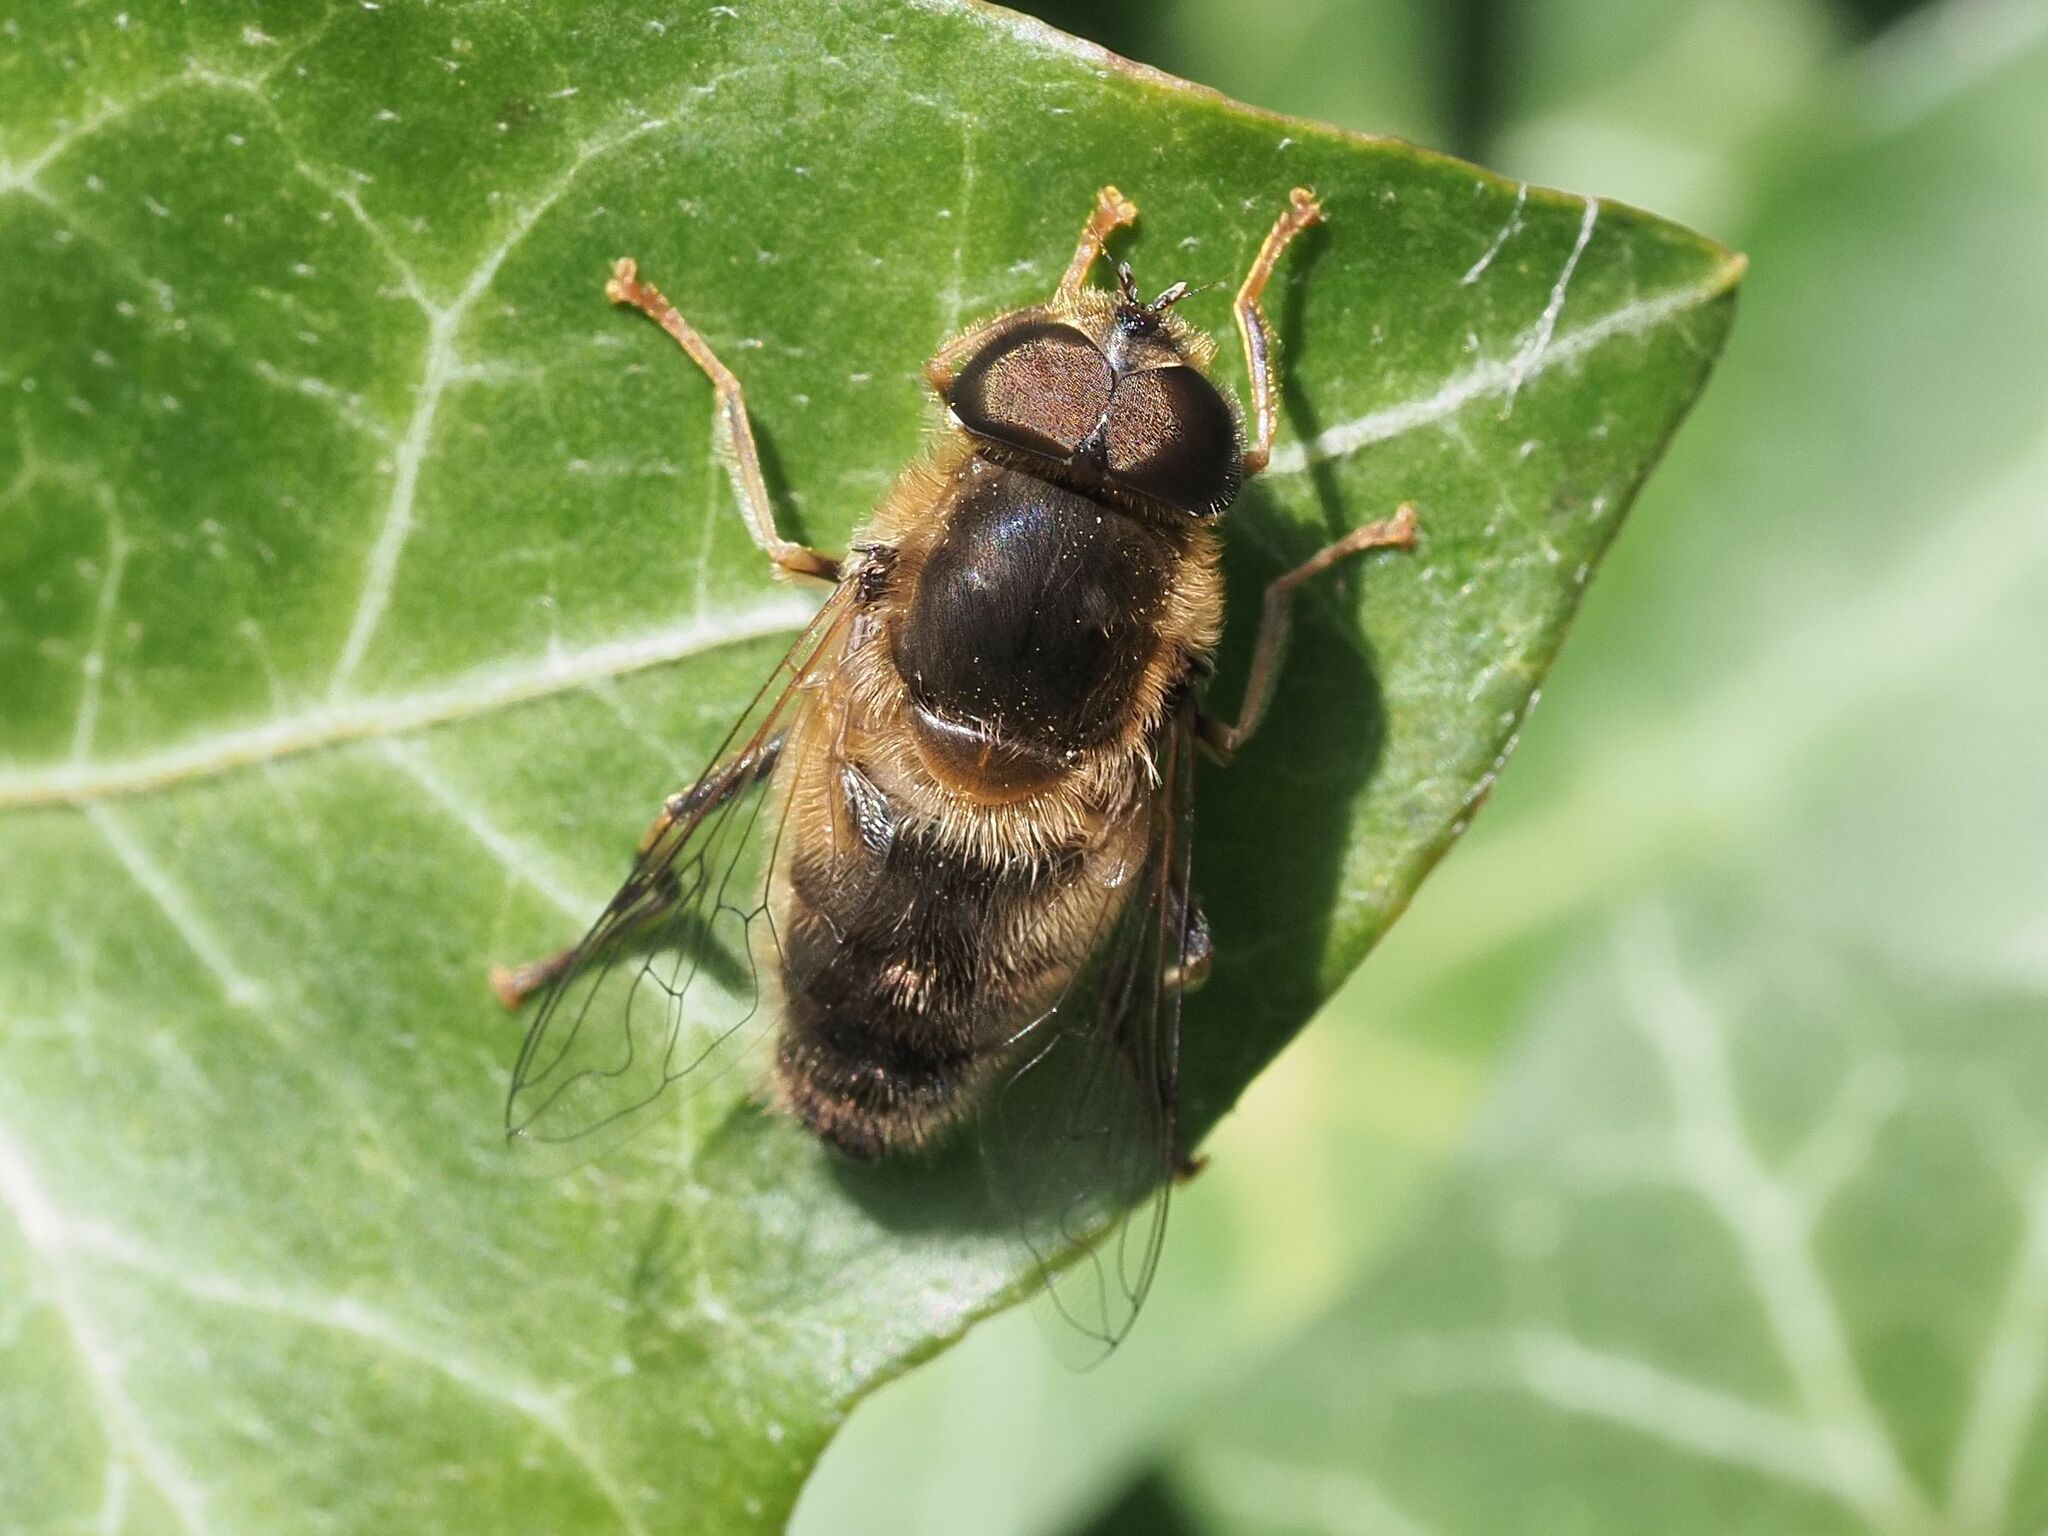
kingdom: Animalia
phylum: Arthropoda
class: Insecta
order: Diptera
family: Syrphidae
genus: Eristalis
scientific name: Eristalis pertinax
